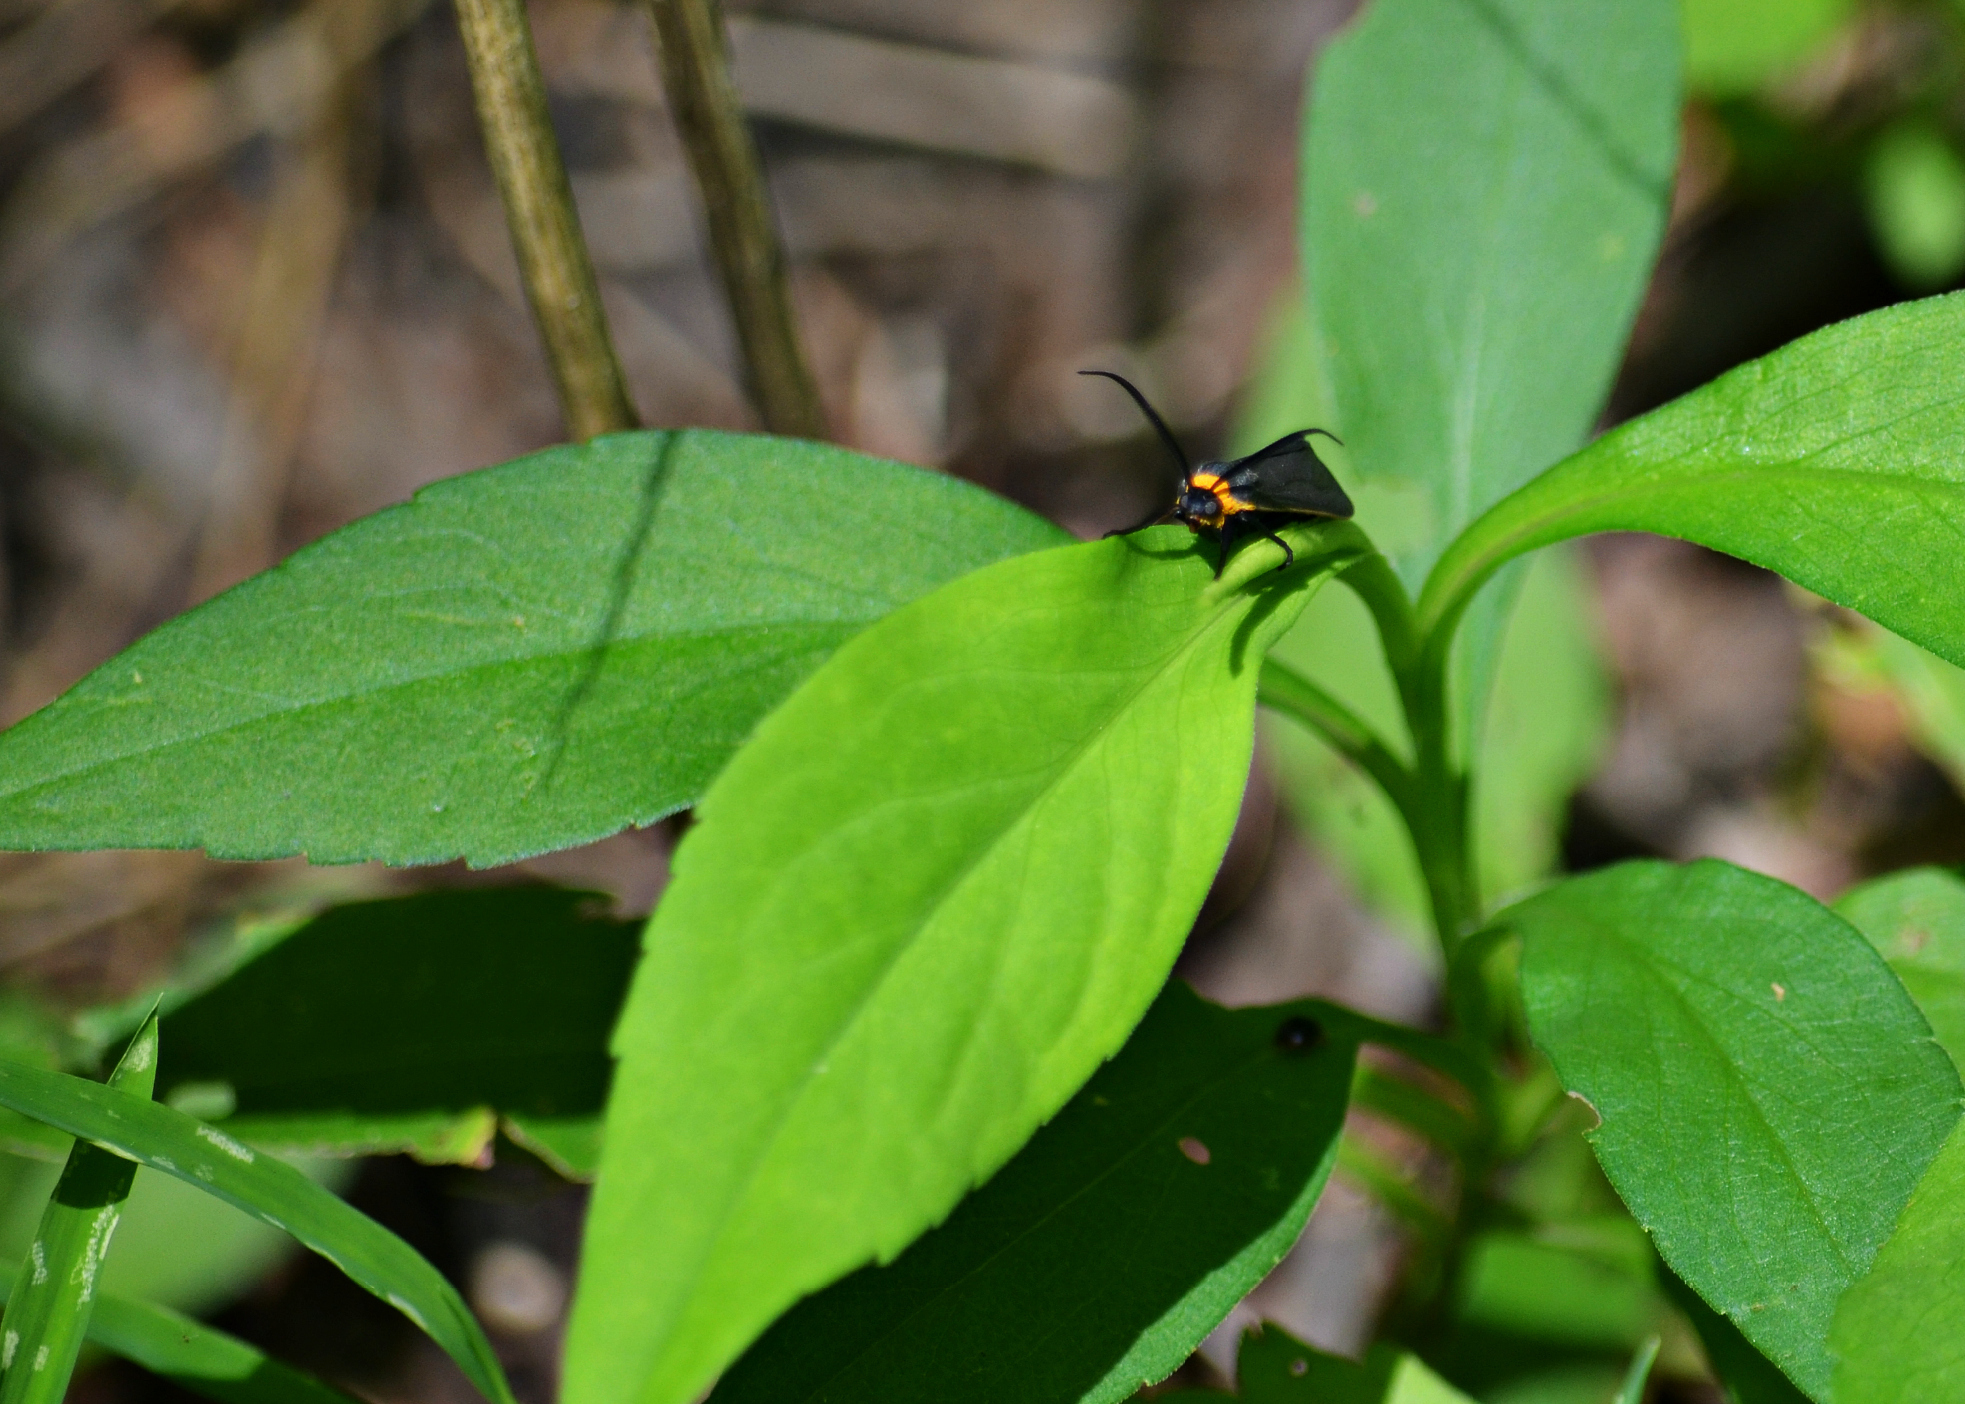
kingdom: Animalia
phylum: Arthropoda
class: Insecta
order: Lepidoptera
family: Erebidae
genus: Cisseps
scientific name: Cisseps fulvicollis
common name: Yellow-collared scape moth
